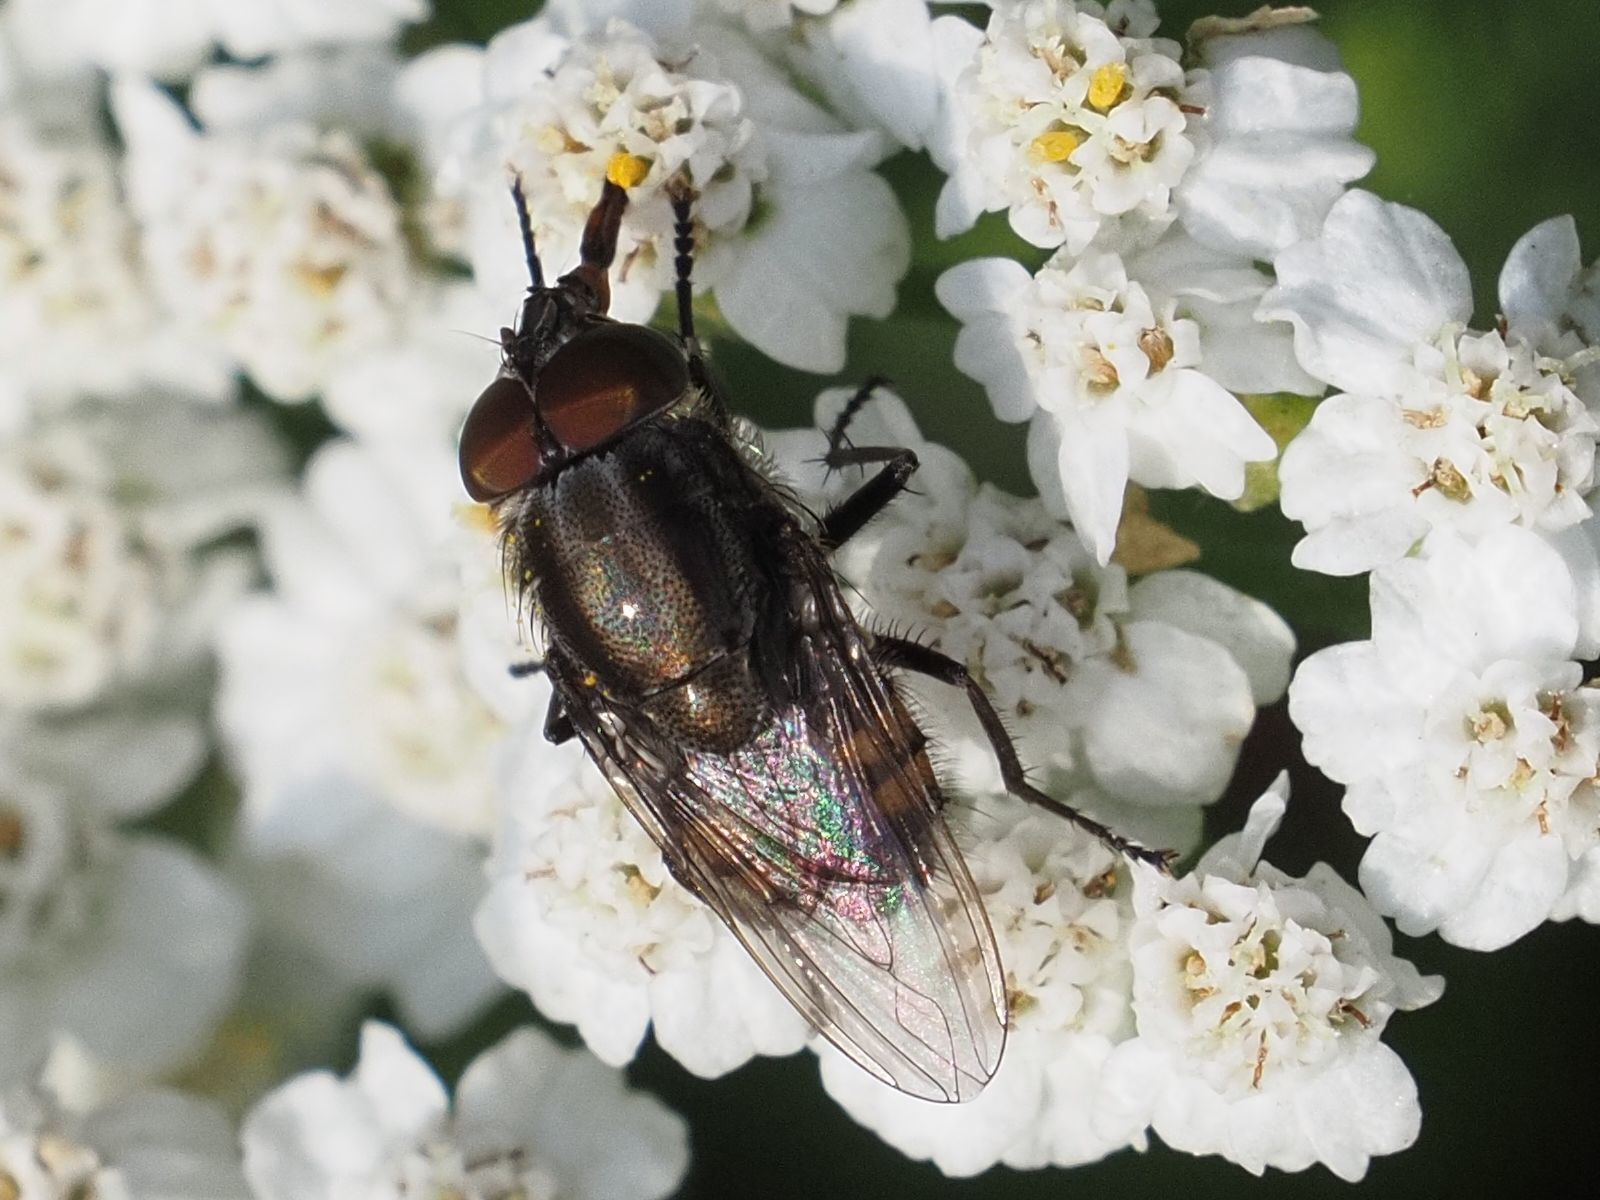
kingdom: Animalia
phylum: Arthropoda
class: Insecta
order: Diptera
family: Calliphoridae
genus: Stomorhina
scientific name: Stomorhina lunata
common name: Locust blowfly
